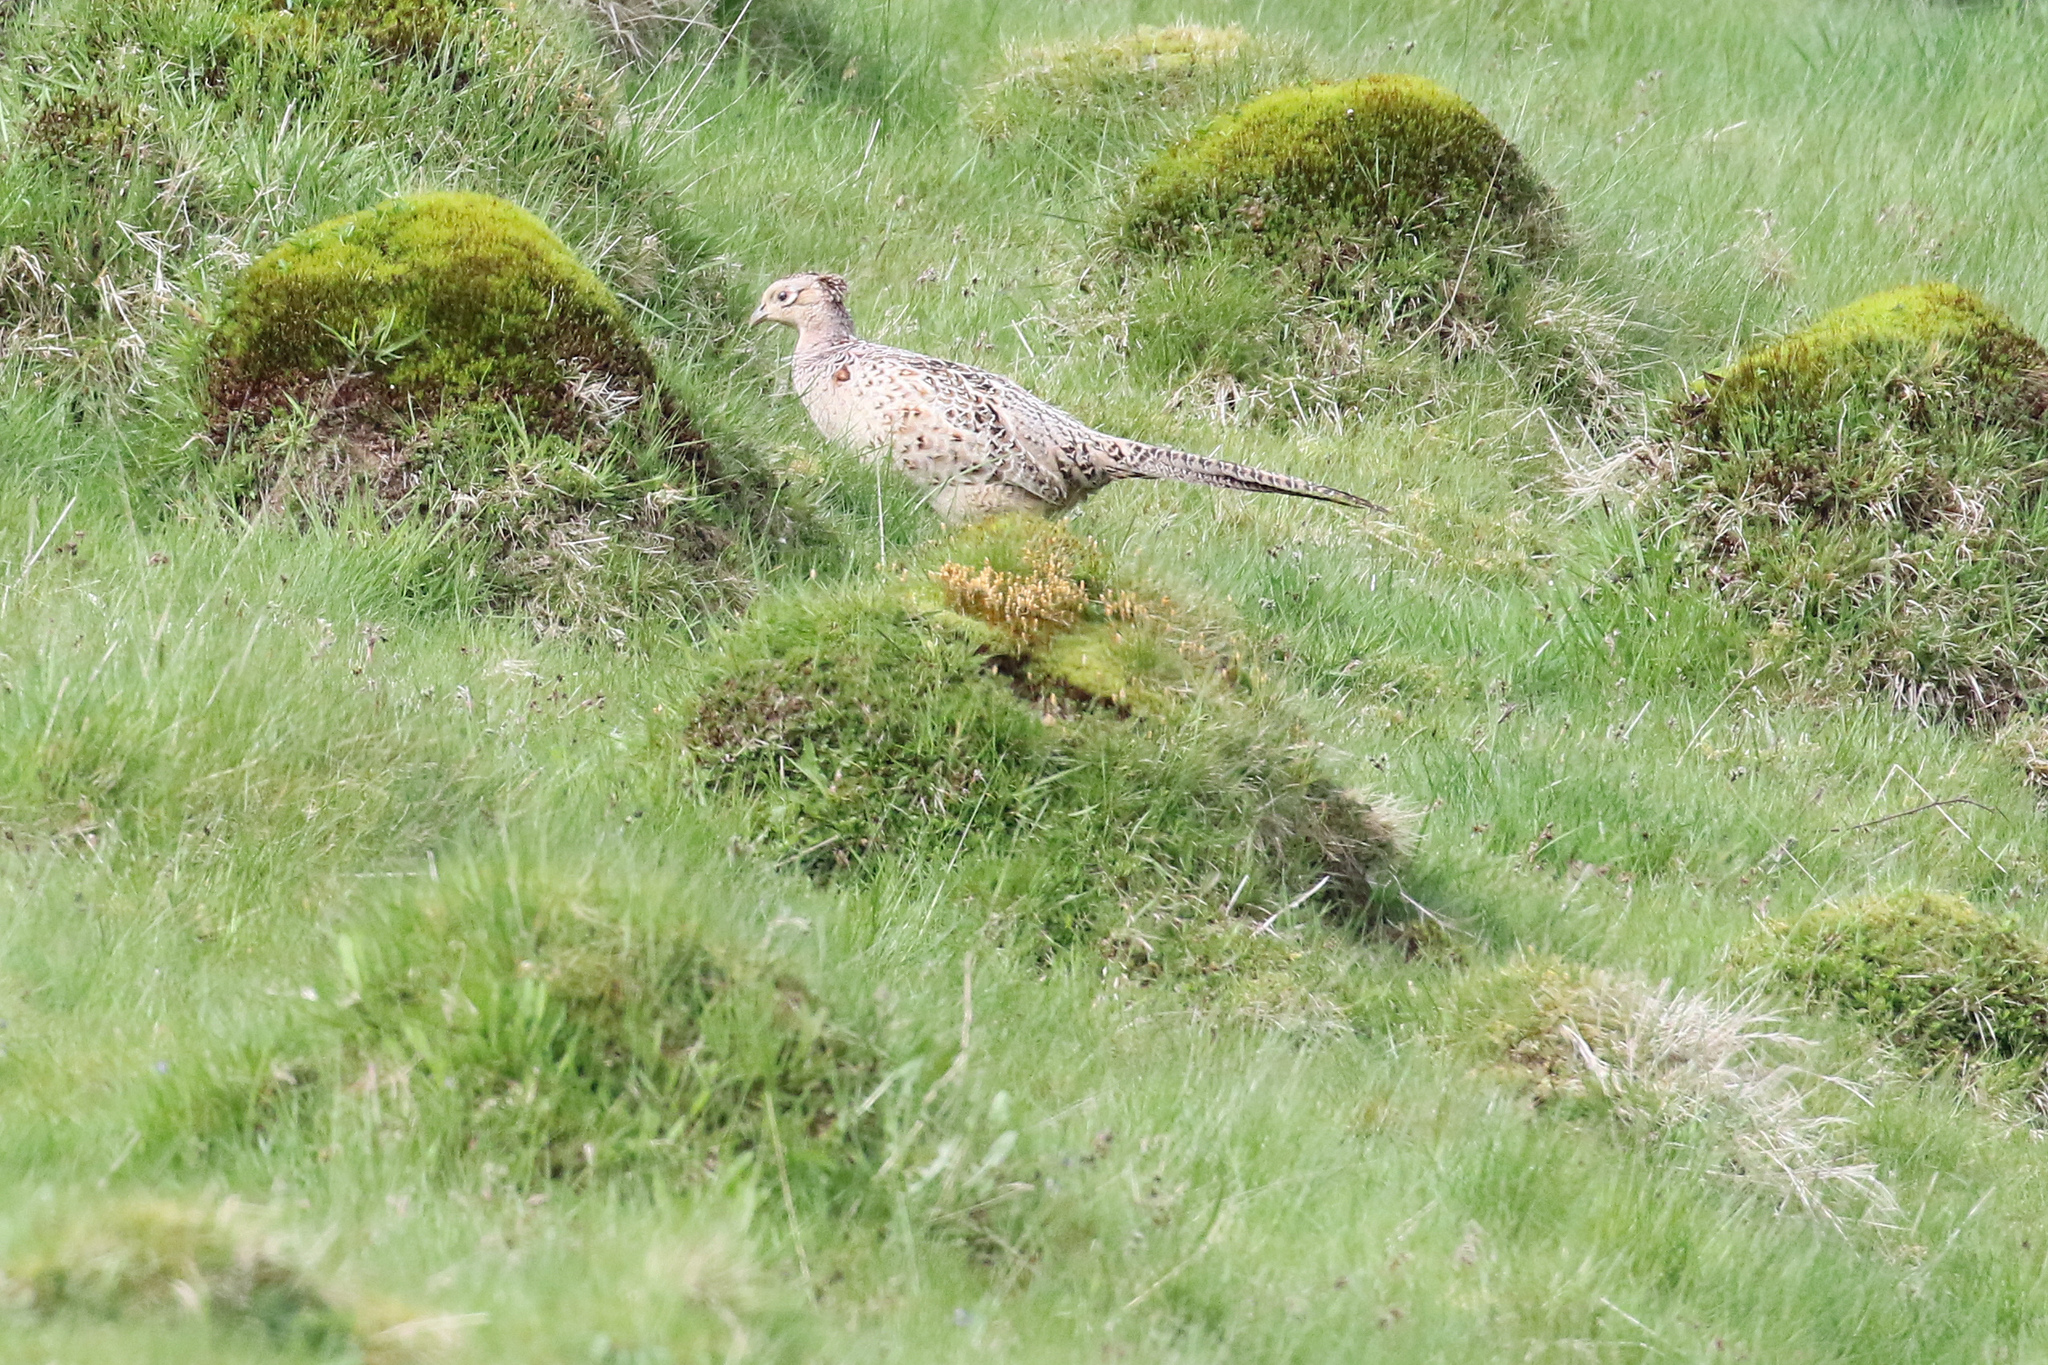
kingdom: Animalia
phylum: Chordata
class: Aves
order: Galliformes
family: Phasianidae
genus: Phasianus
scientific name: Phasianus colchicus
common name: Common pheasant
